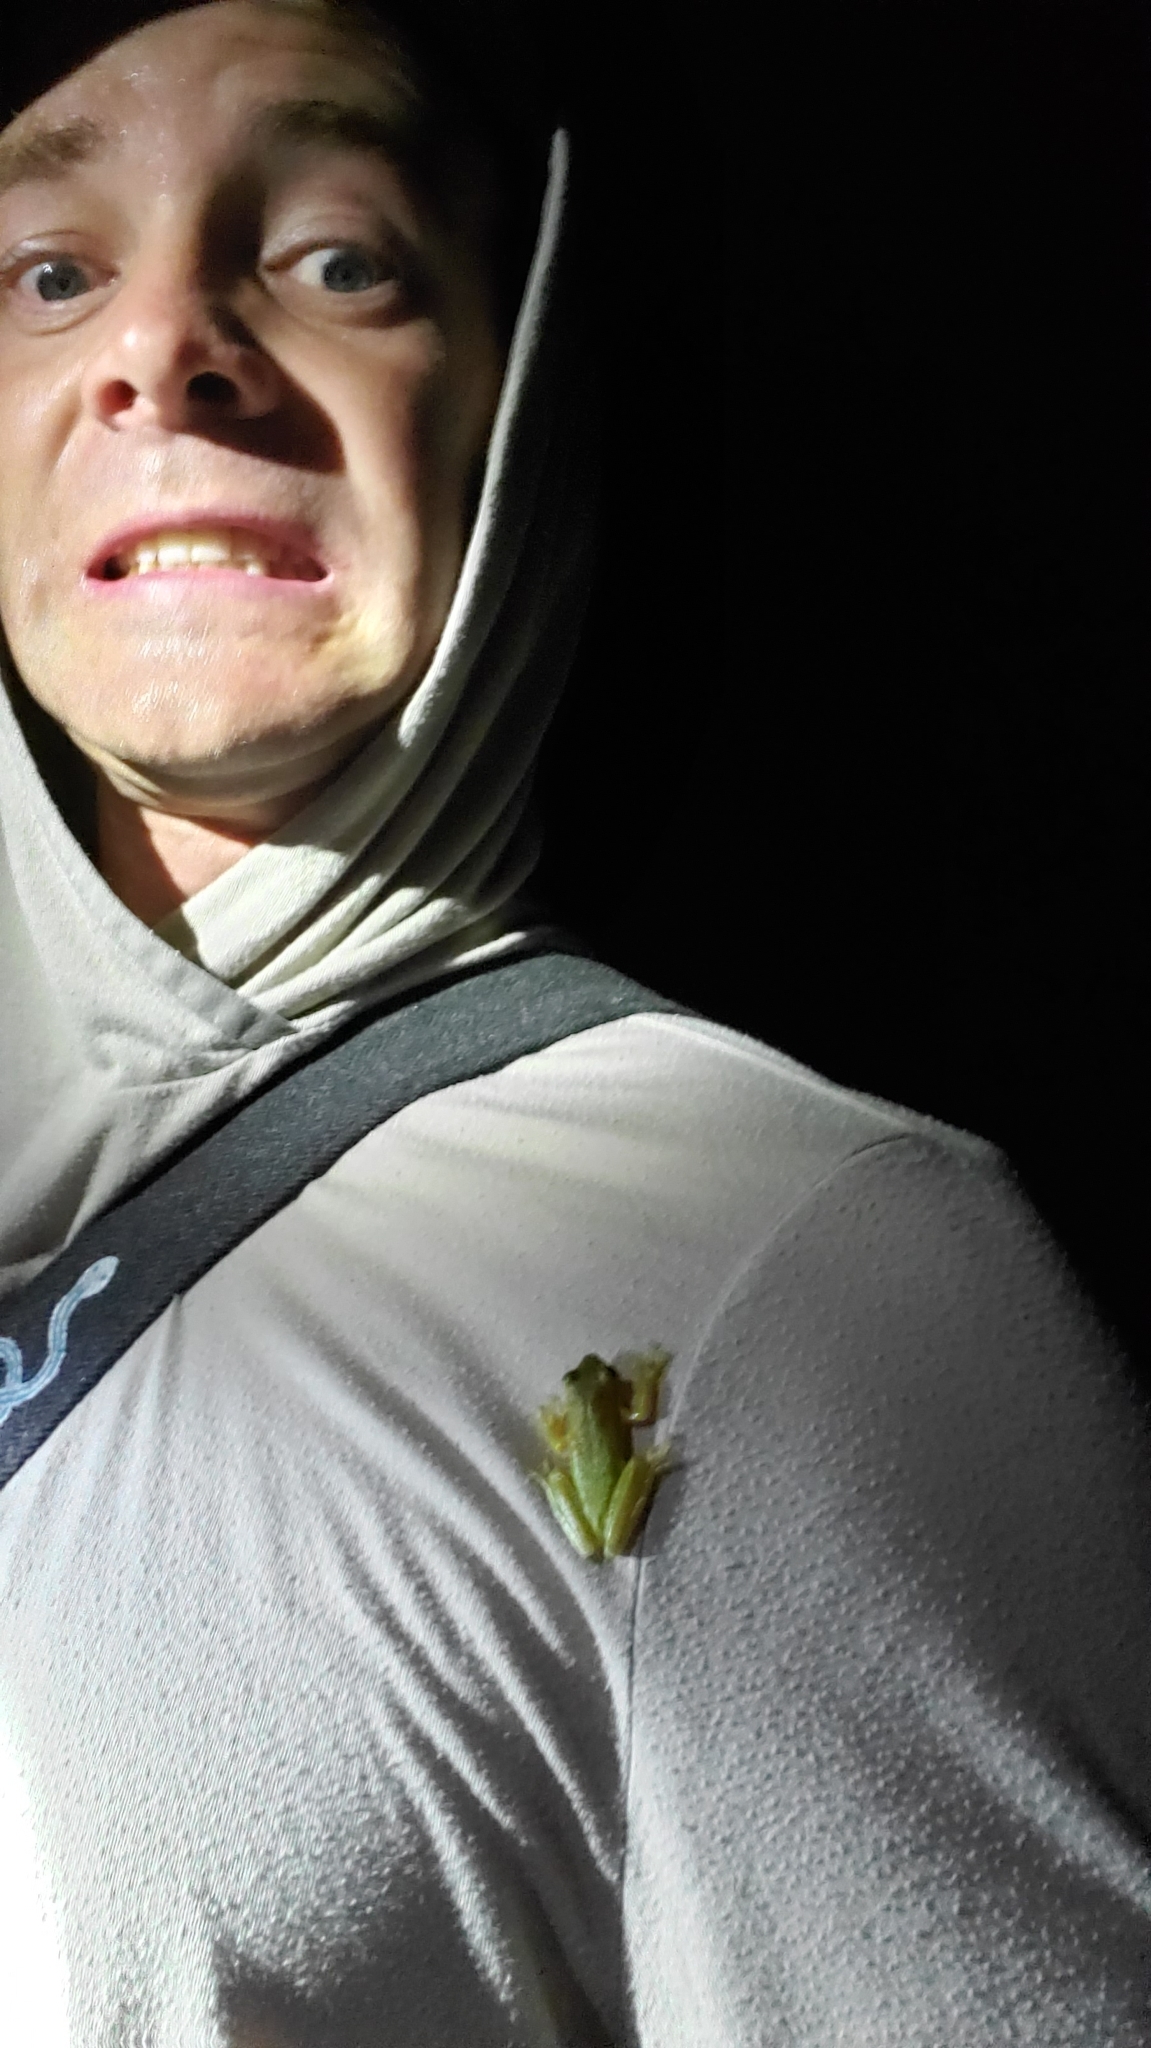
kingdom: Animalia
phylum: Chordata
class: Amphibia
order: Anura
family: Hylidae
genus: Dryophytes
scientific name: Dryophytes cinereus
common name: Green treefrog
